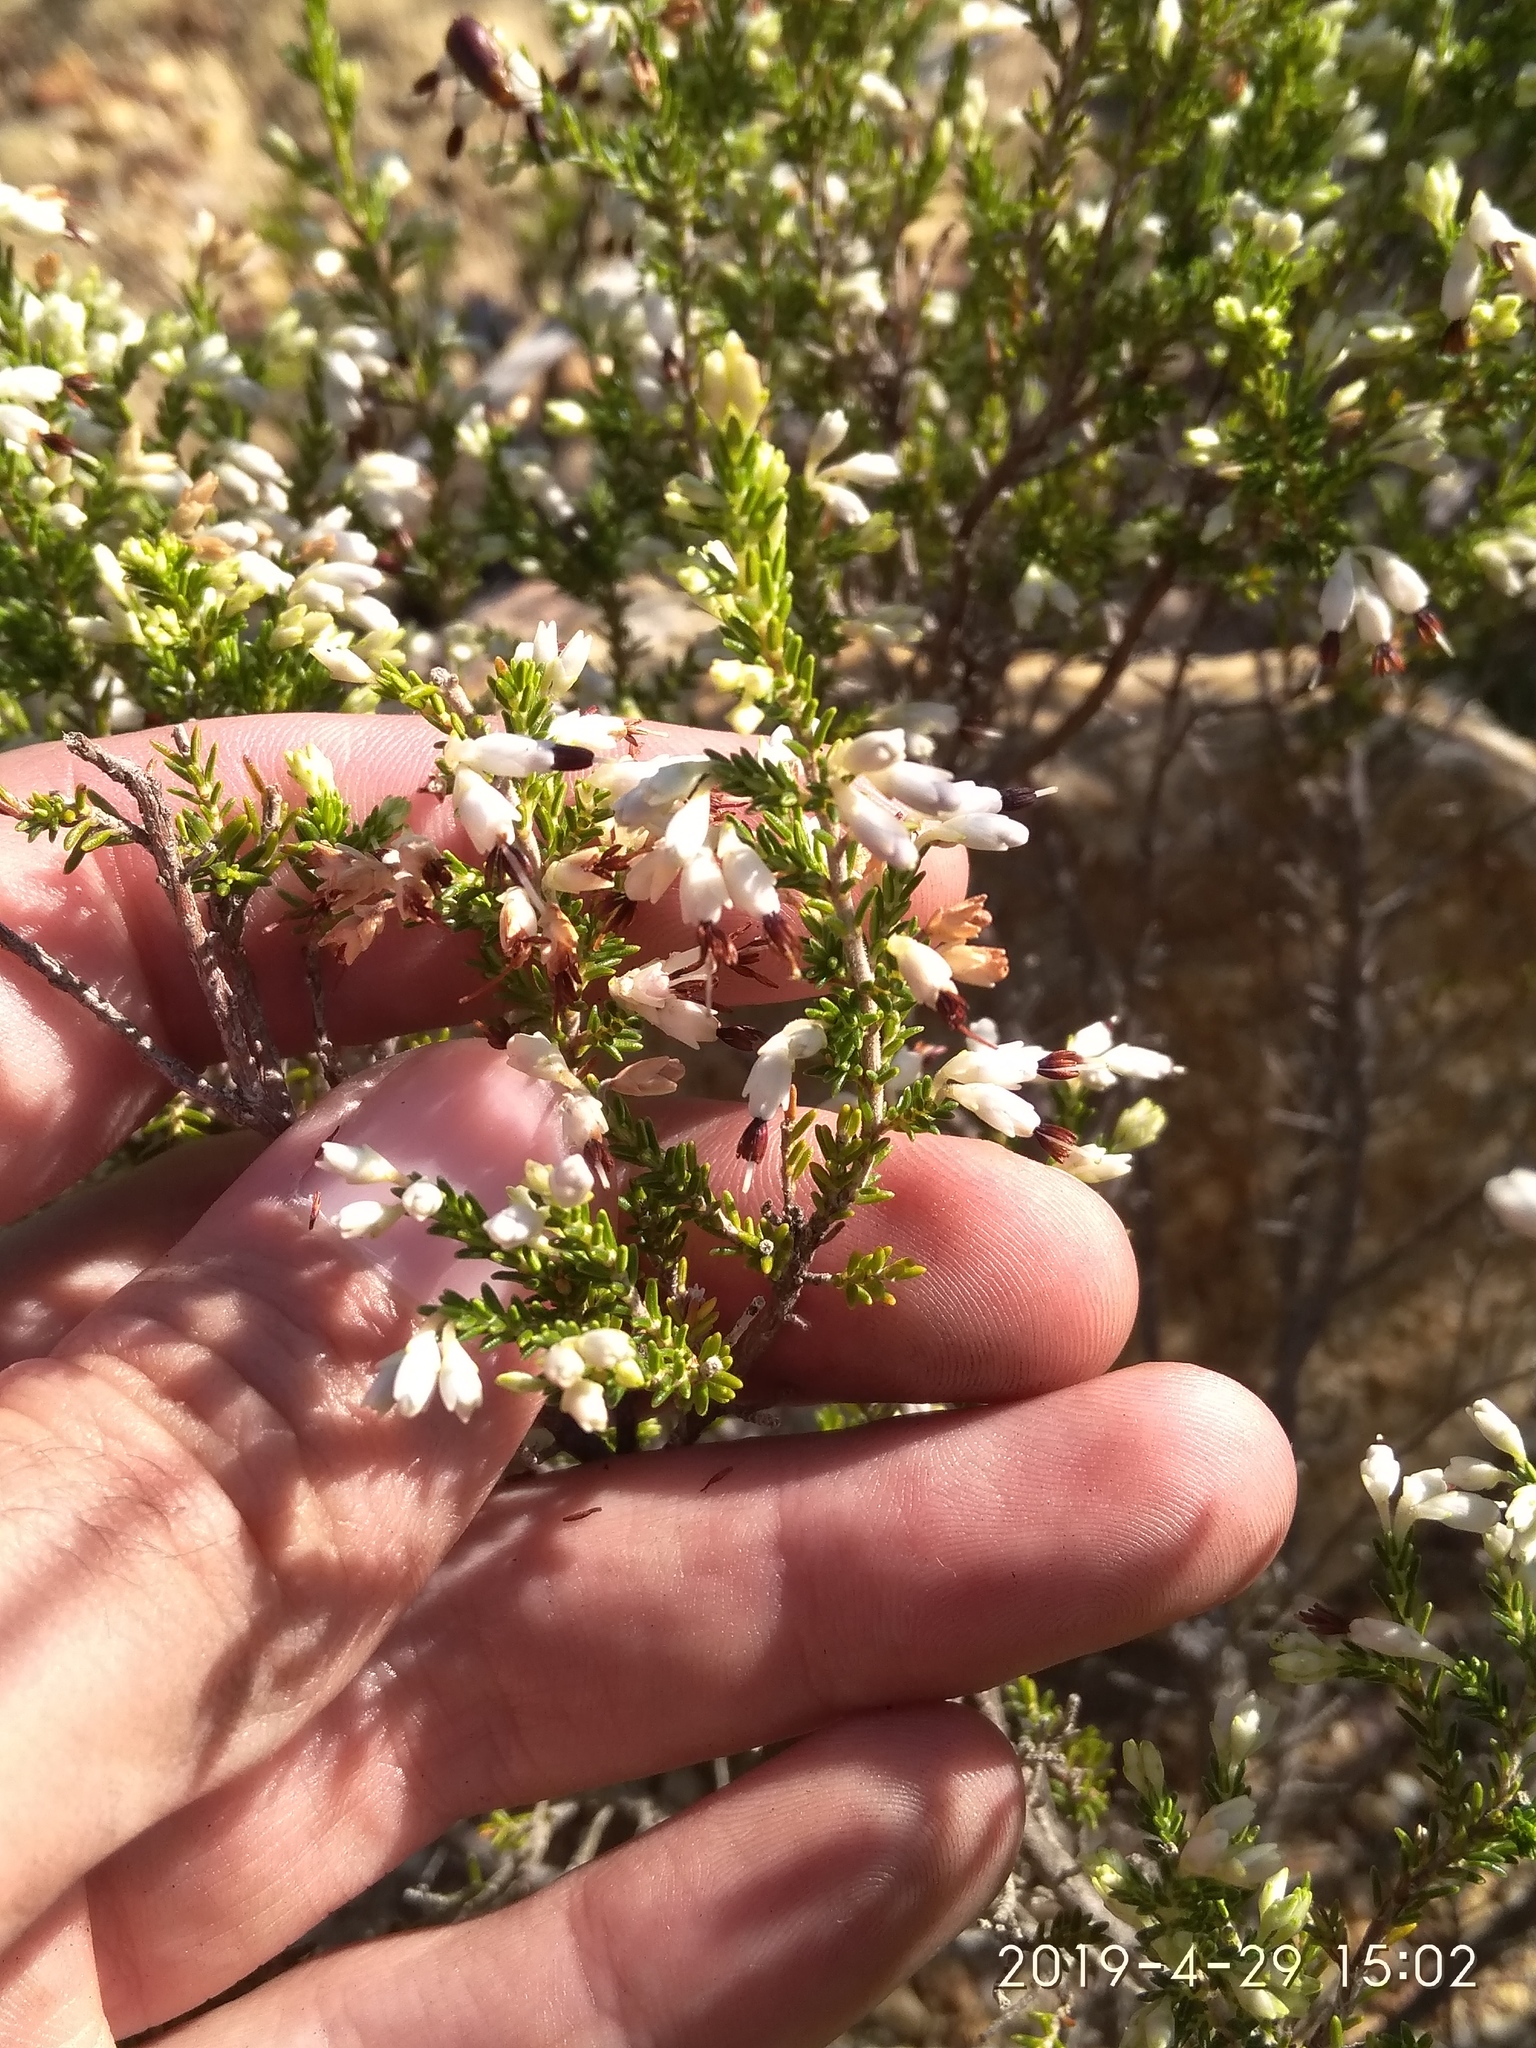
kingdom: Plantae
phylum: Tracheophyta
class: Magnoliopsida
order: Ericales
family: Ericaceae
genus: Erica
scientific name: Erica imbricata
